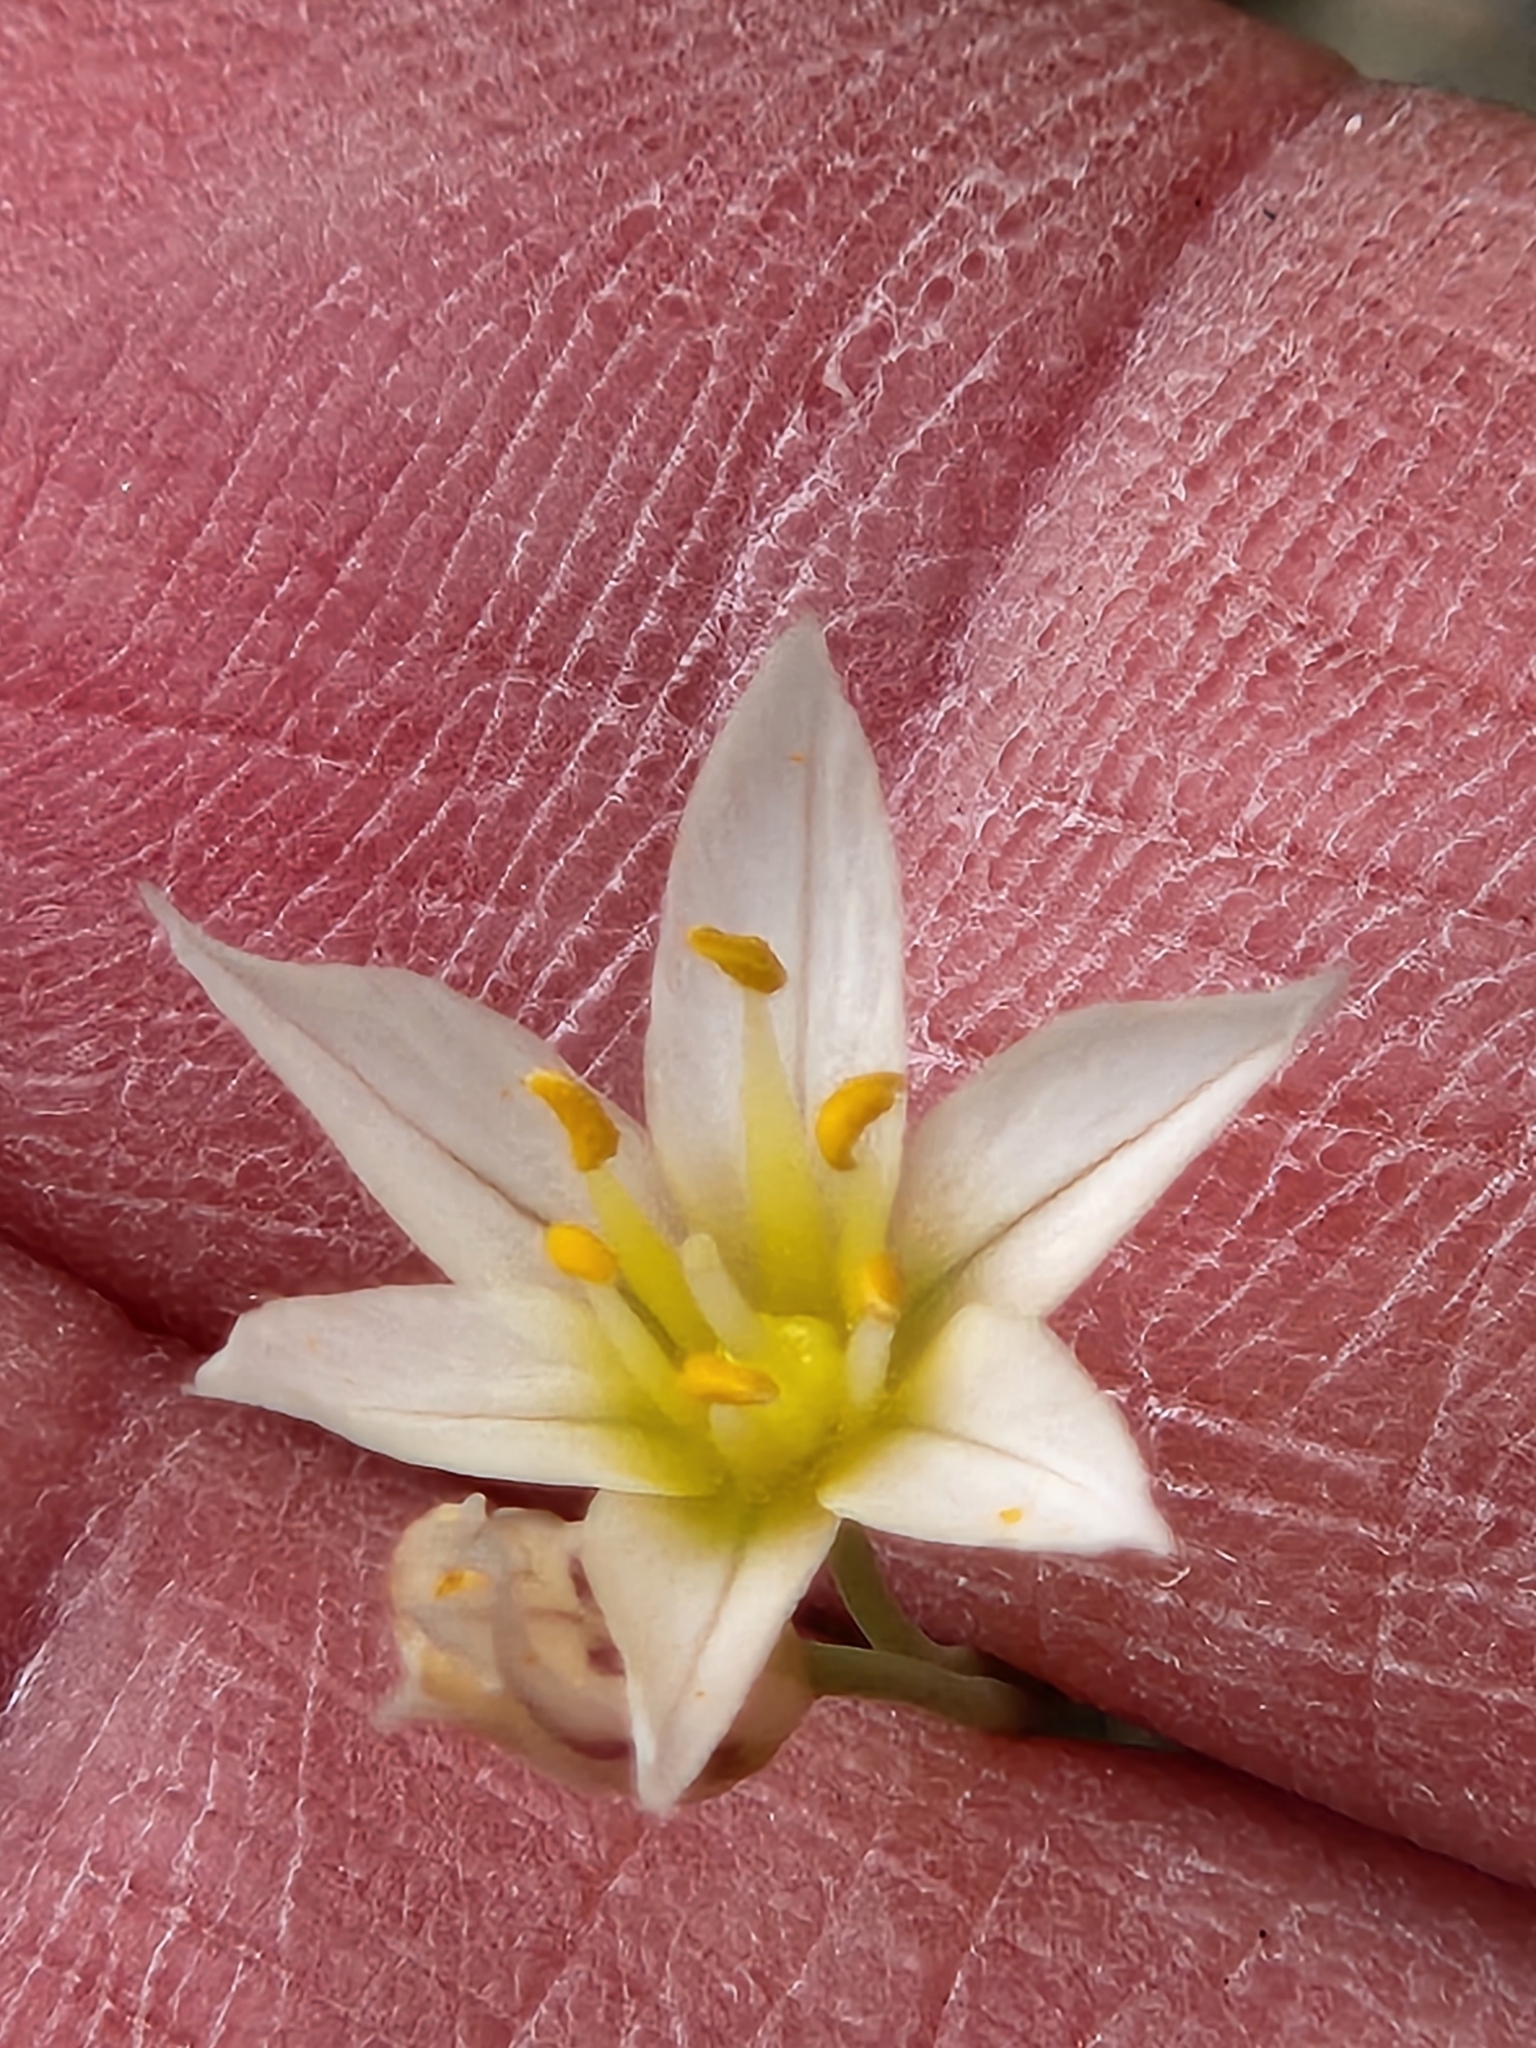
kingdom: Plantae
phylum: Tracheophyta
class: Liliopsida
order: Asparagales
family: Amaryllidaceae
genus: Nothoscordum
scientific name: Nothoscordum bivalve
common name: Crow-poison
